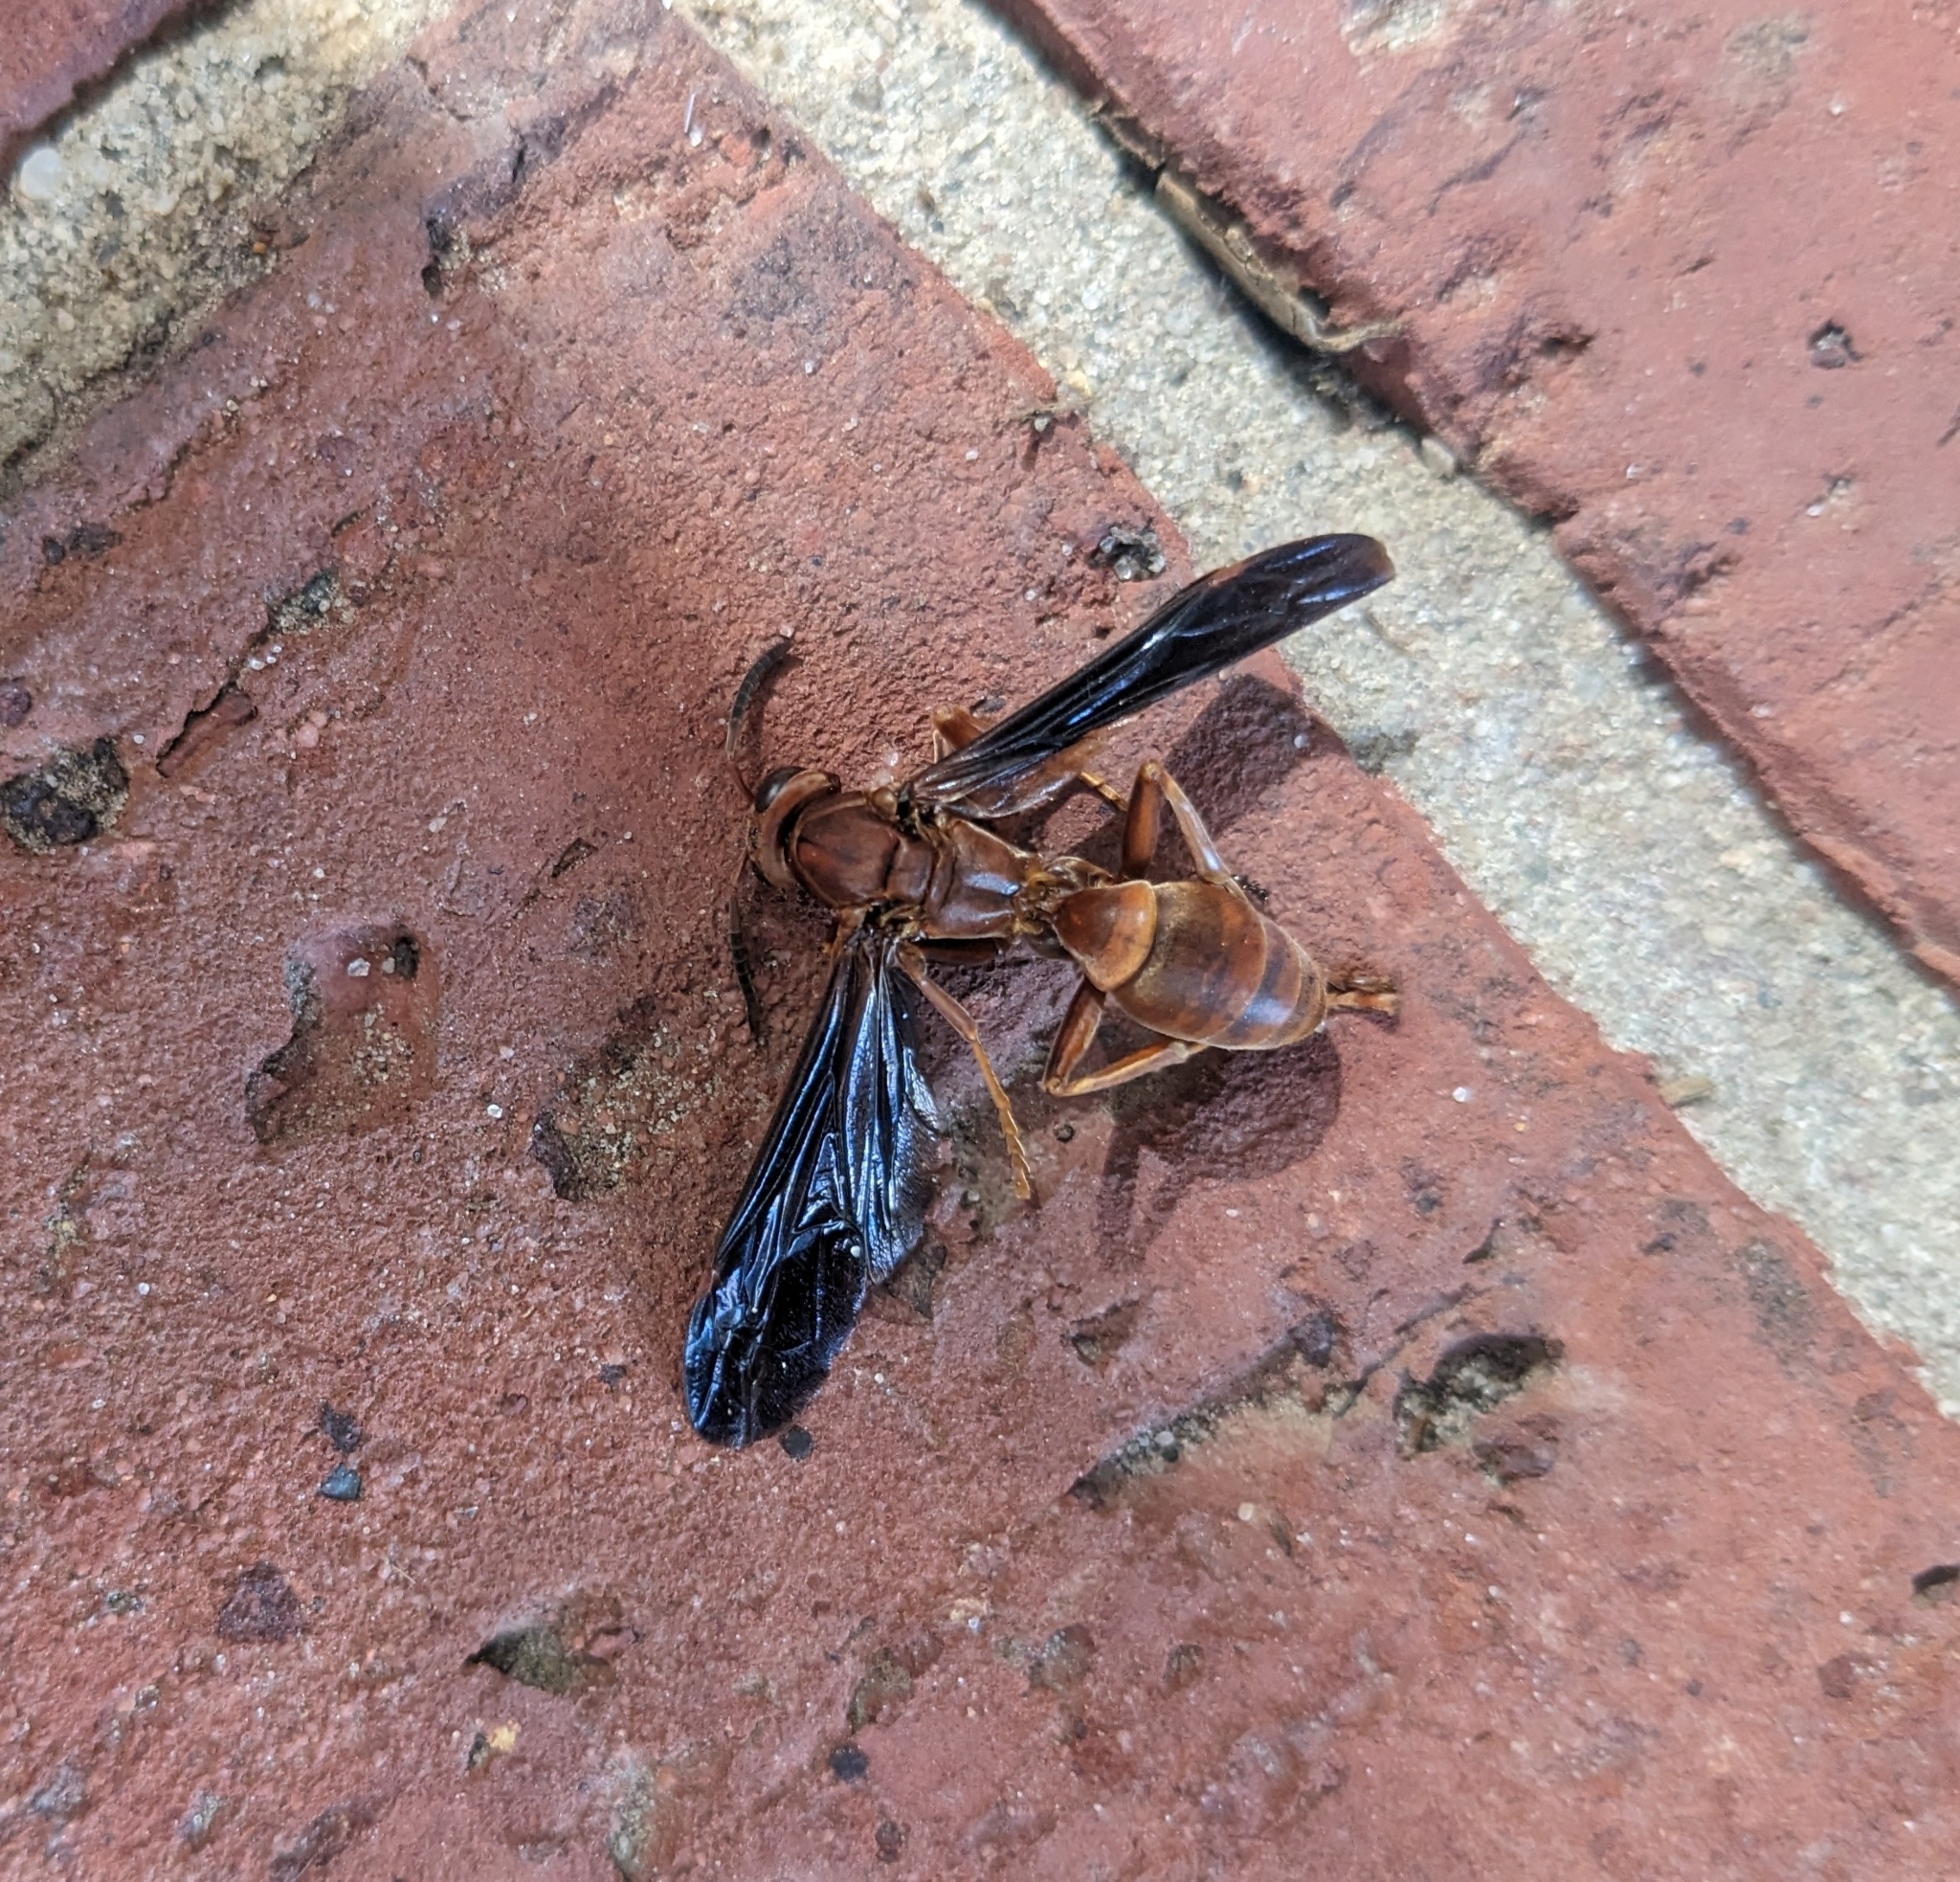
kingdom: Animalia
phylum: Arthropoda
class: Insecta
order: Hymenoptera
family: Vespidae
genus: Fuscopolistes
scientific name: Fuscopolistes
